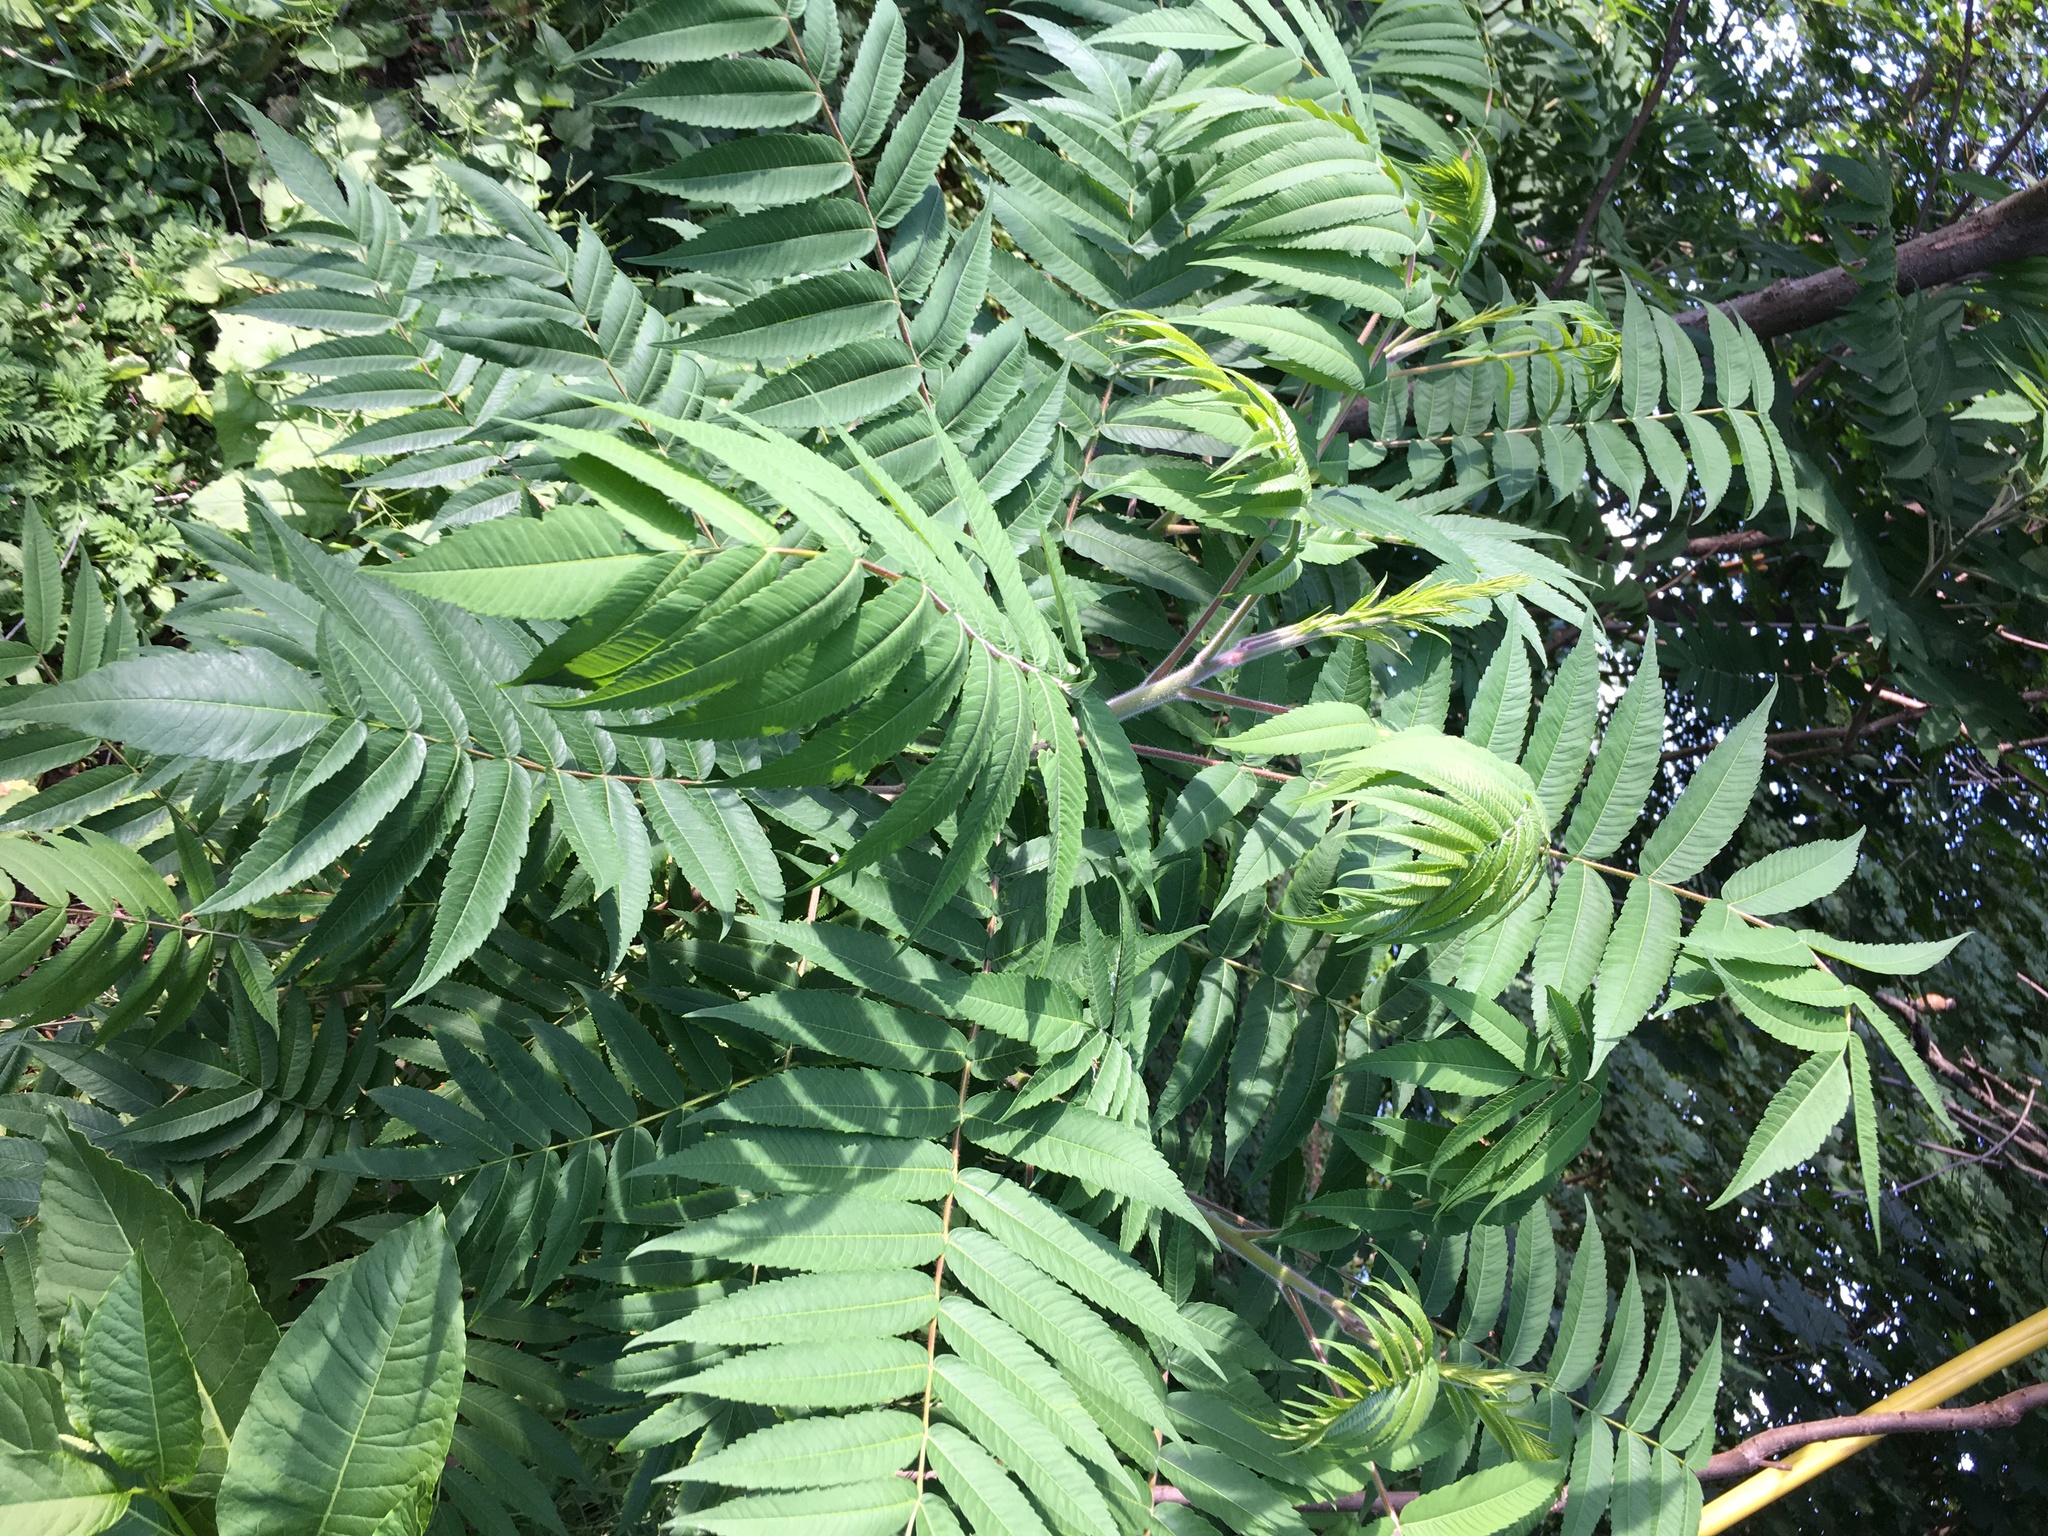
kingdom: Plantae
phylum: Tracheophyta
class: Magnoliopsida
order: Sapindales
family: Anacardiaceae
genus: Rhus
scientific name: Rhus typhina
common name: Staghorn sumac
